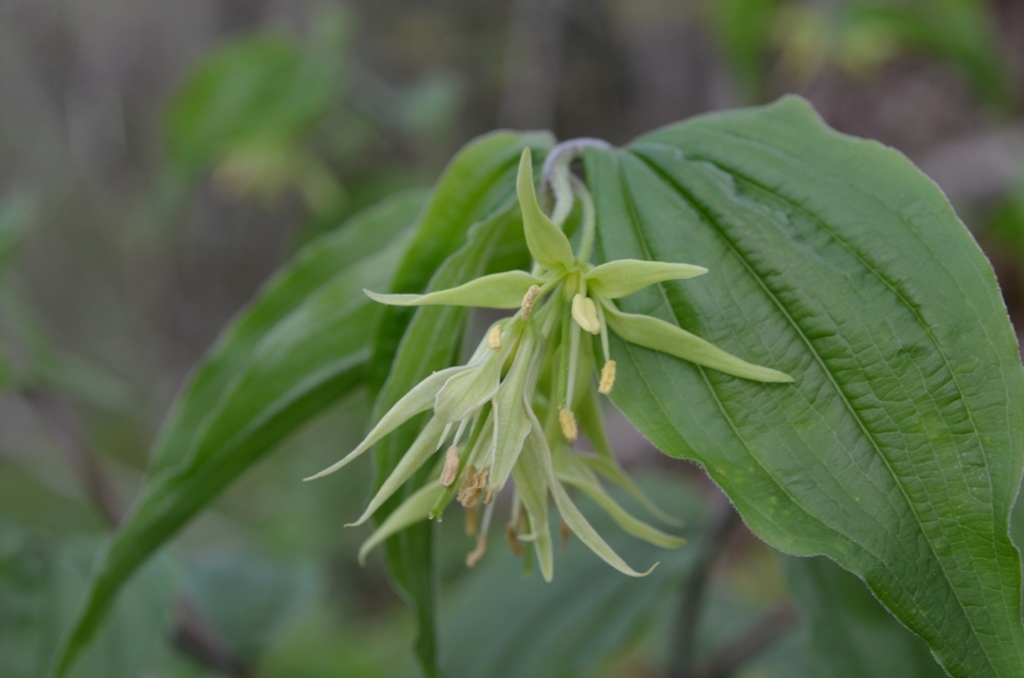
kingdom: Plantae
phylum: Tracheophyta
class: Liliopsida
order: Liliales
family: Liliaceae
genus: Prosartes
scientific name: Prosartes lanuginosa
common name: Hairy mandarin
